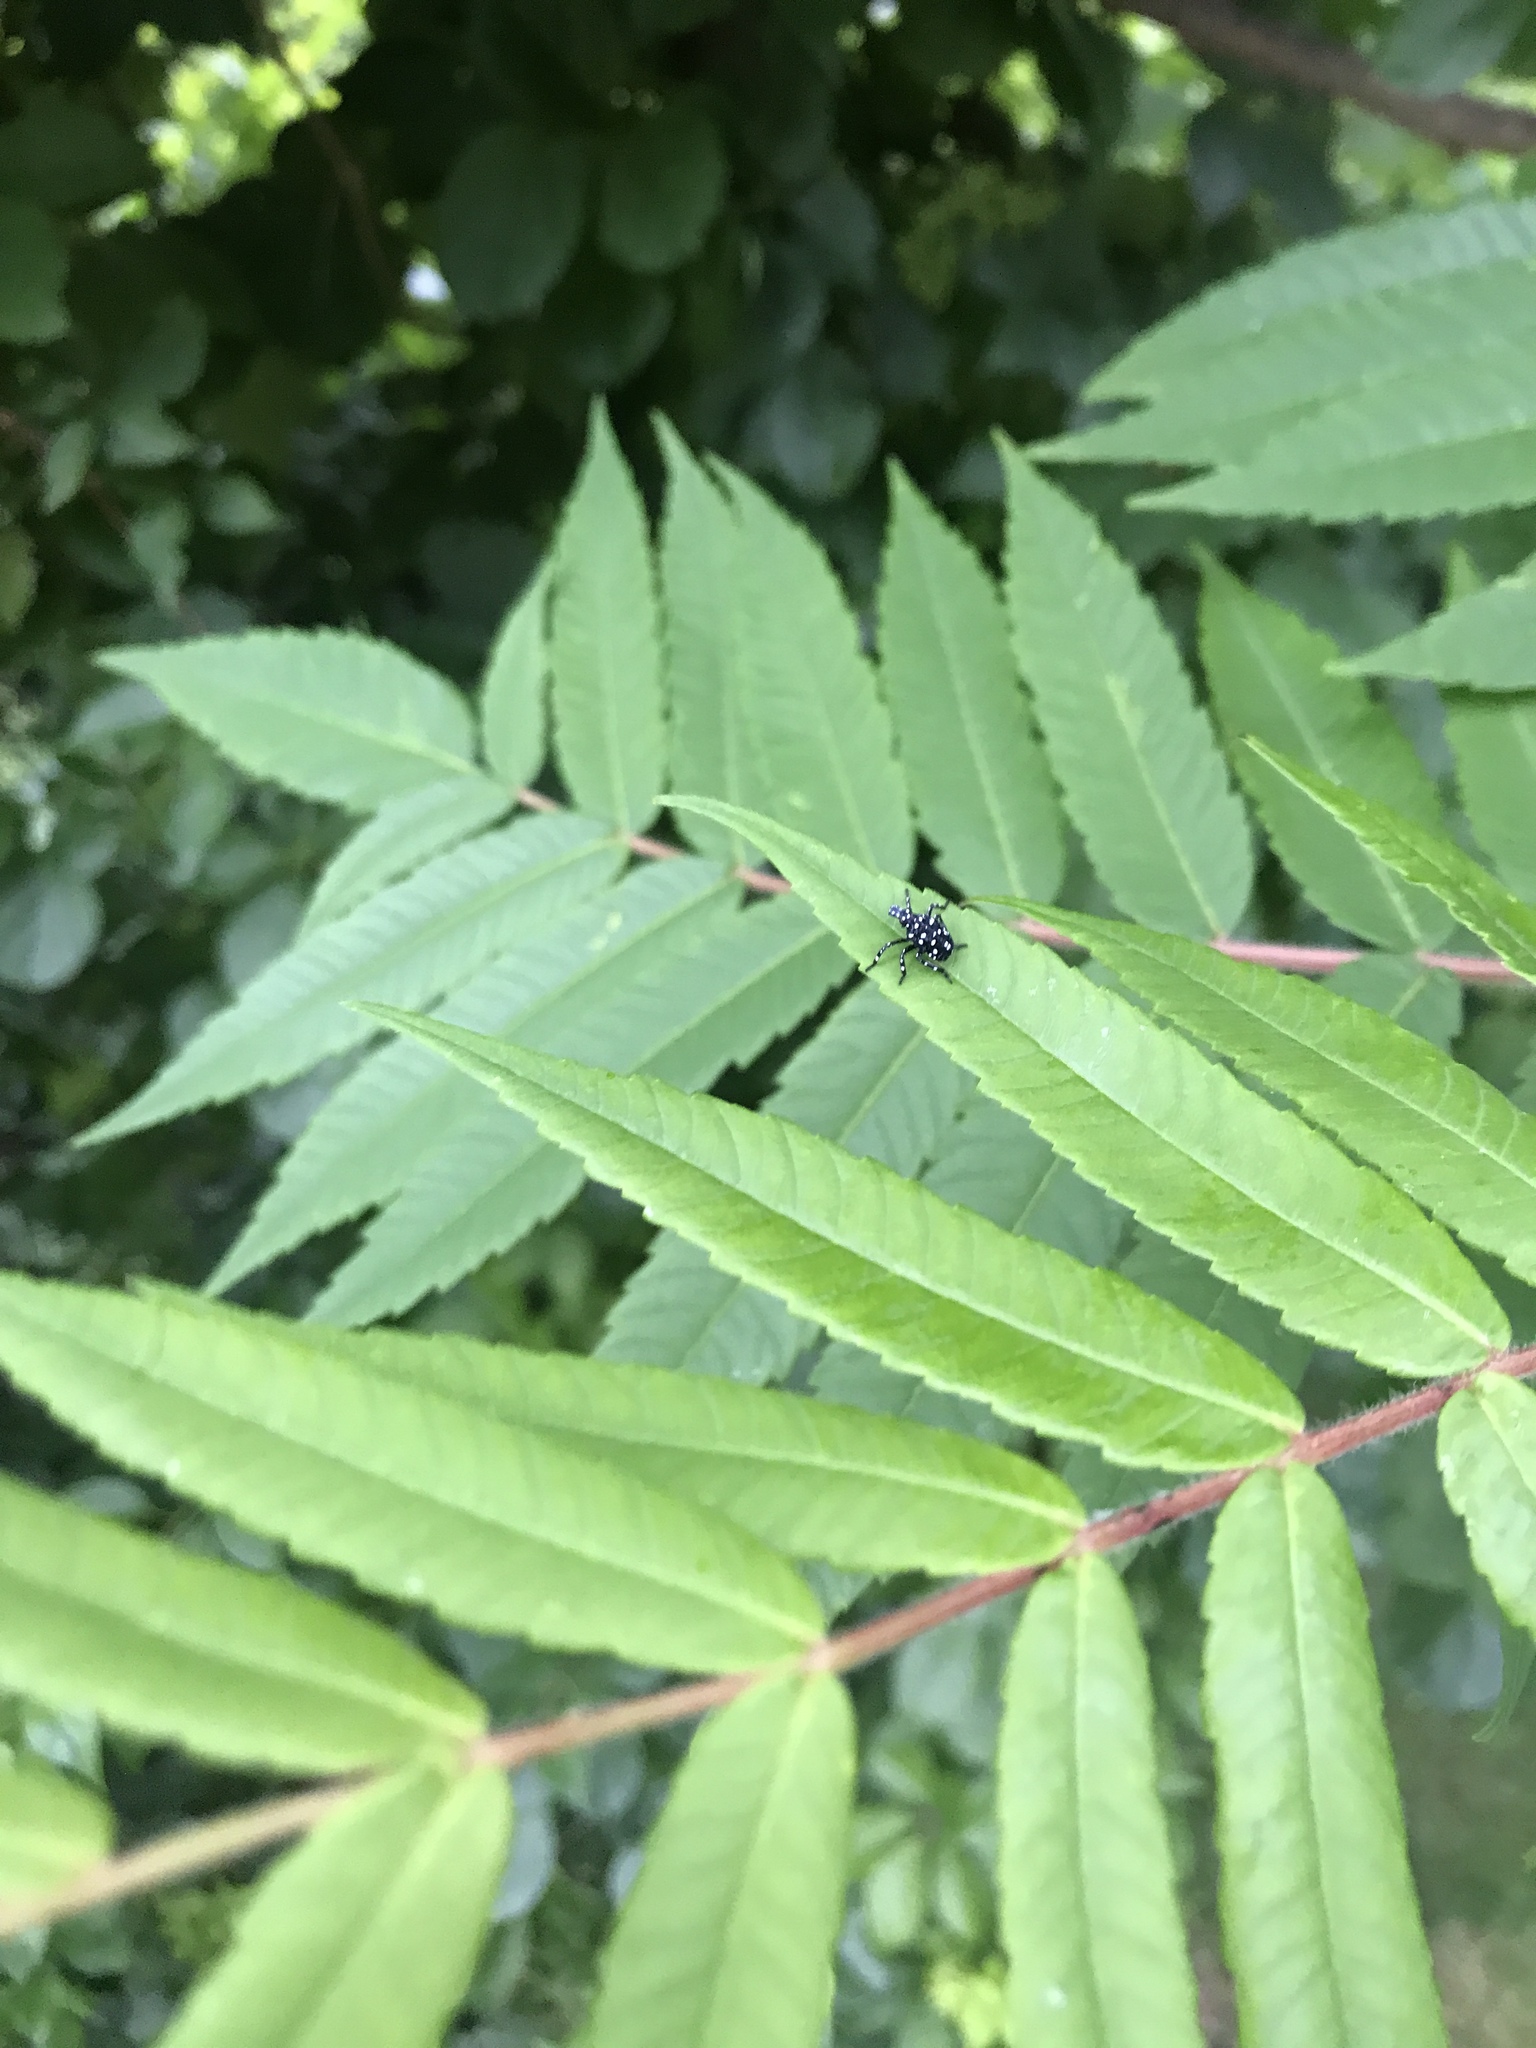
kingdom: Animalia
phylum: Arthropoda
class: Insecta
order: Hemiptera
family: Fulgoridae
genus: Lycorma
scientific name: Lycorma delicatula
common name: Spotted lanternfly
